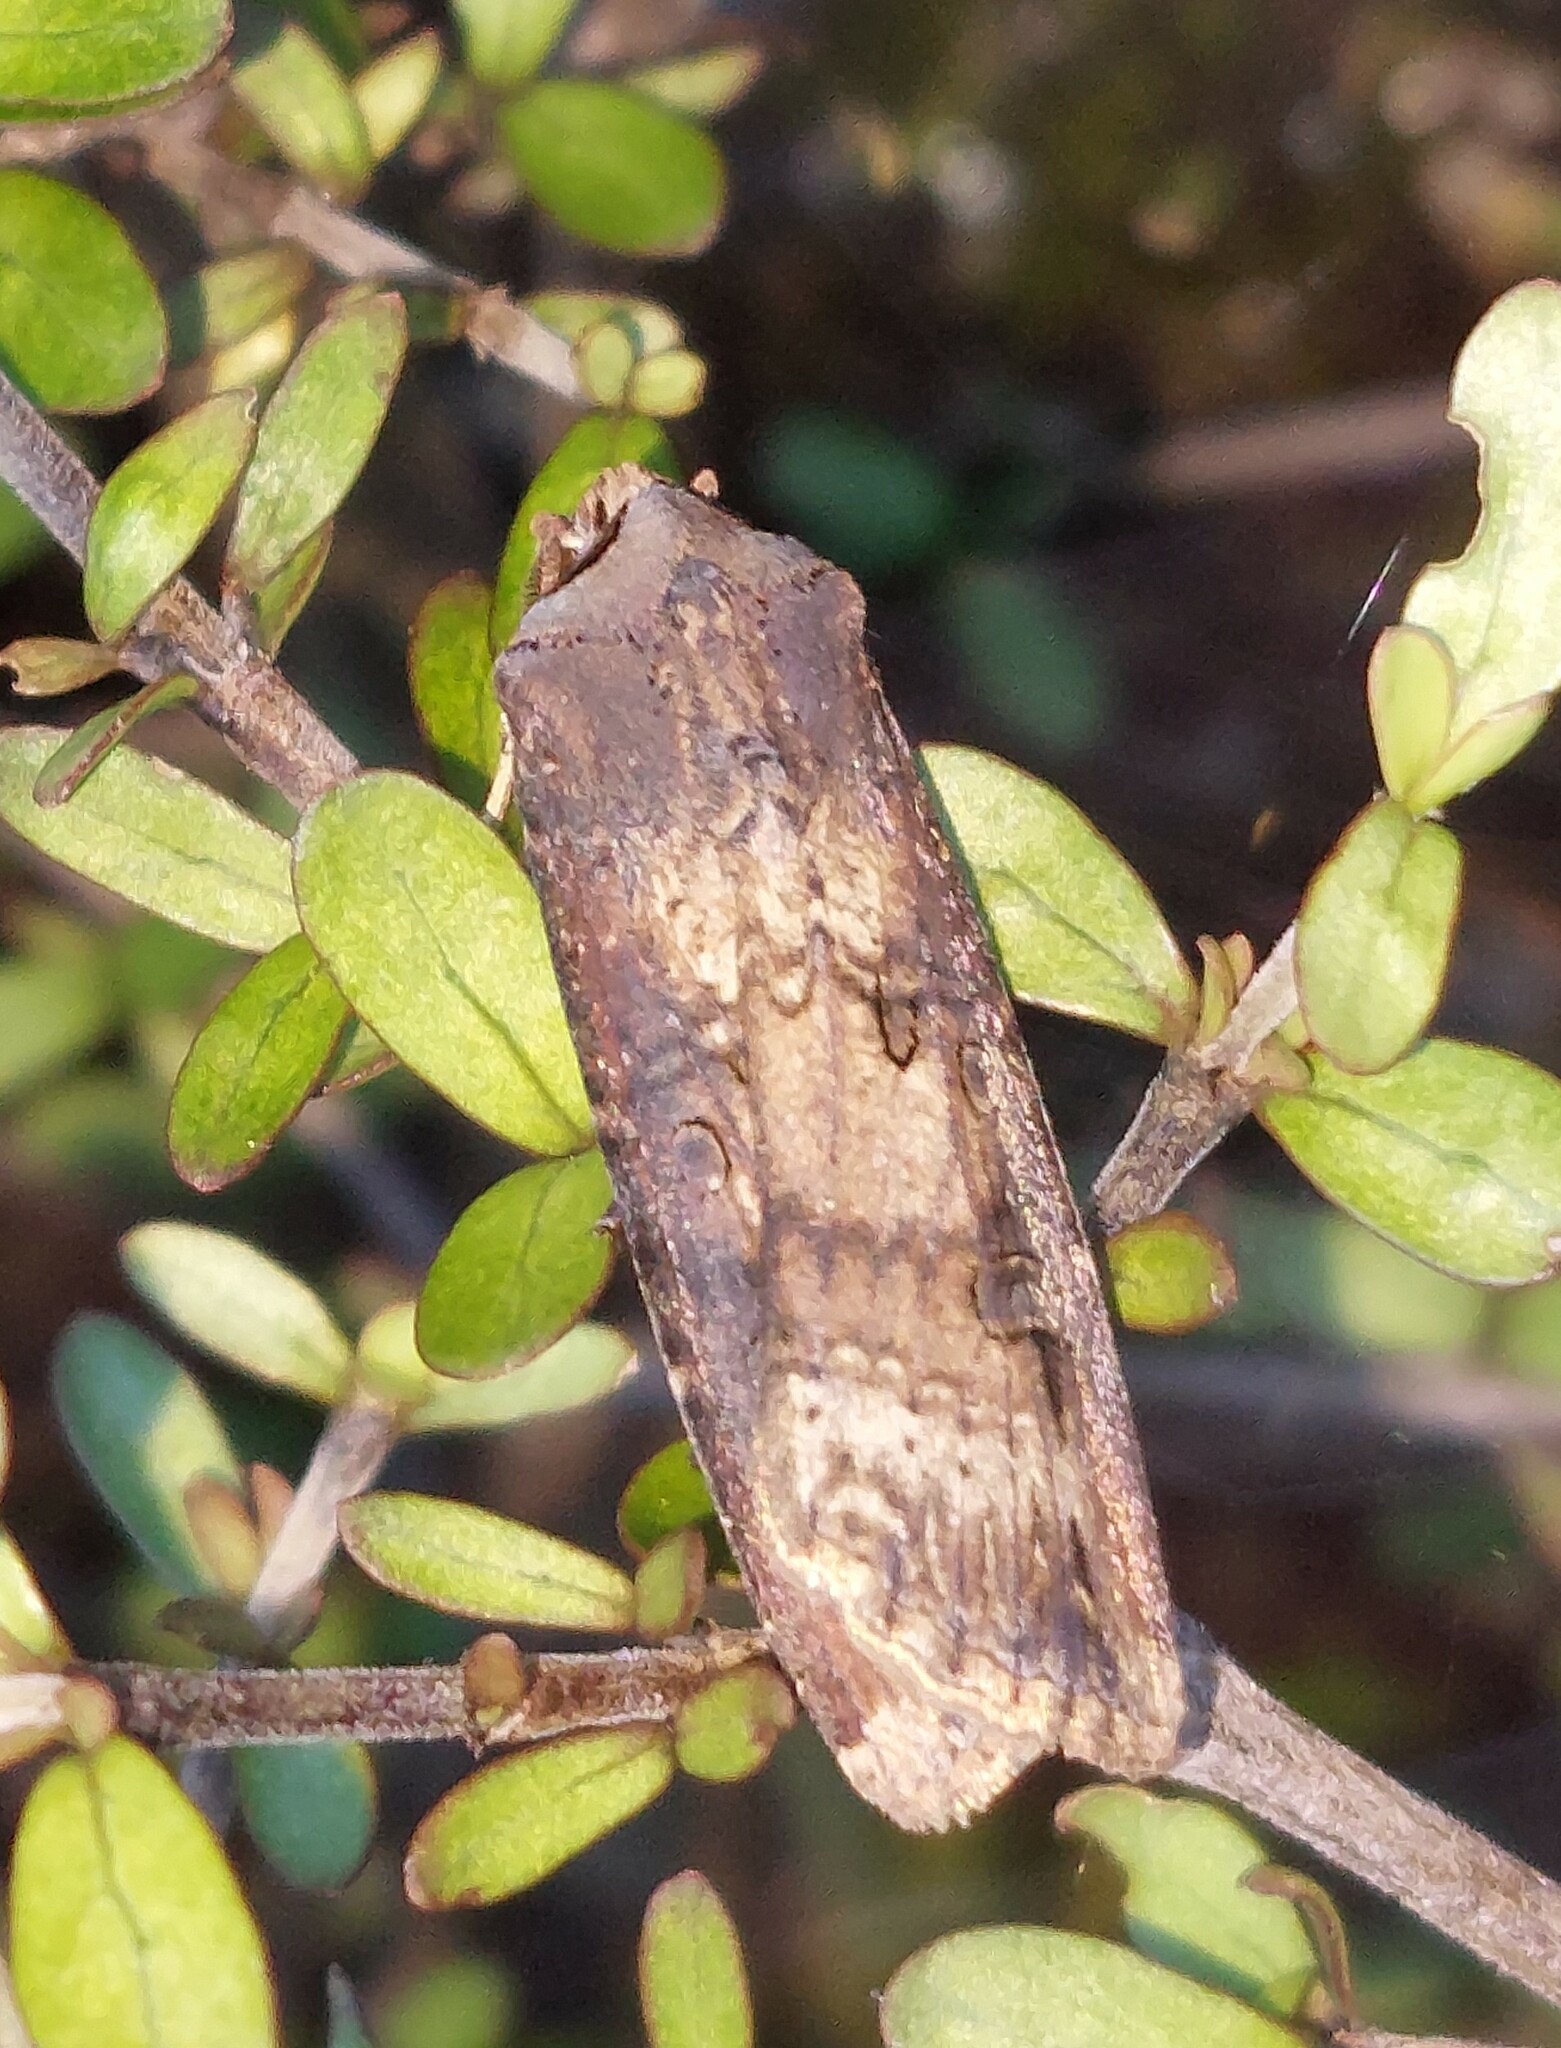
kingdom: Animalia
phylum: Arthropoda
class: Insecta
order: Lepidoptera
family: Noctuidae
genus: Agrotis
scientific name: Agrotis ipsilon
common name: Dark sword-grass
